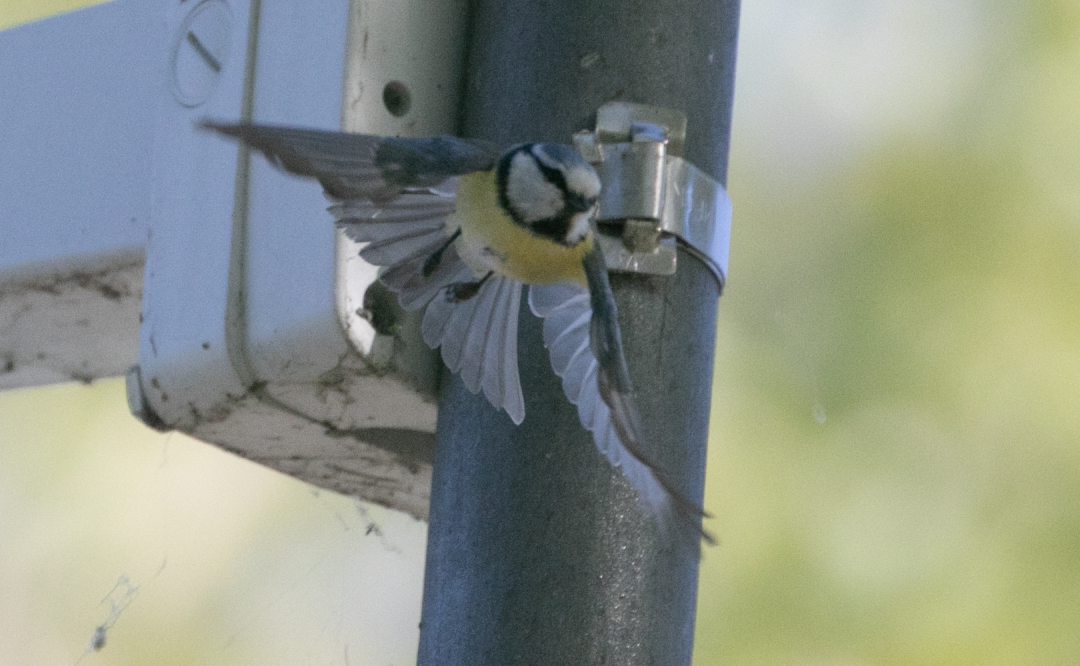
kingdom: Animalia
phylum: Chordata
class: Aves
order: Passeriformes
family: Paridae
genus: Cyanistes
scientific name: Cyanistes caeruleus
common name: Eurasian blue tit
